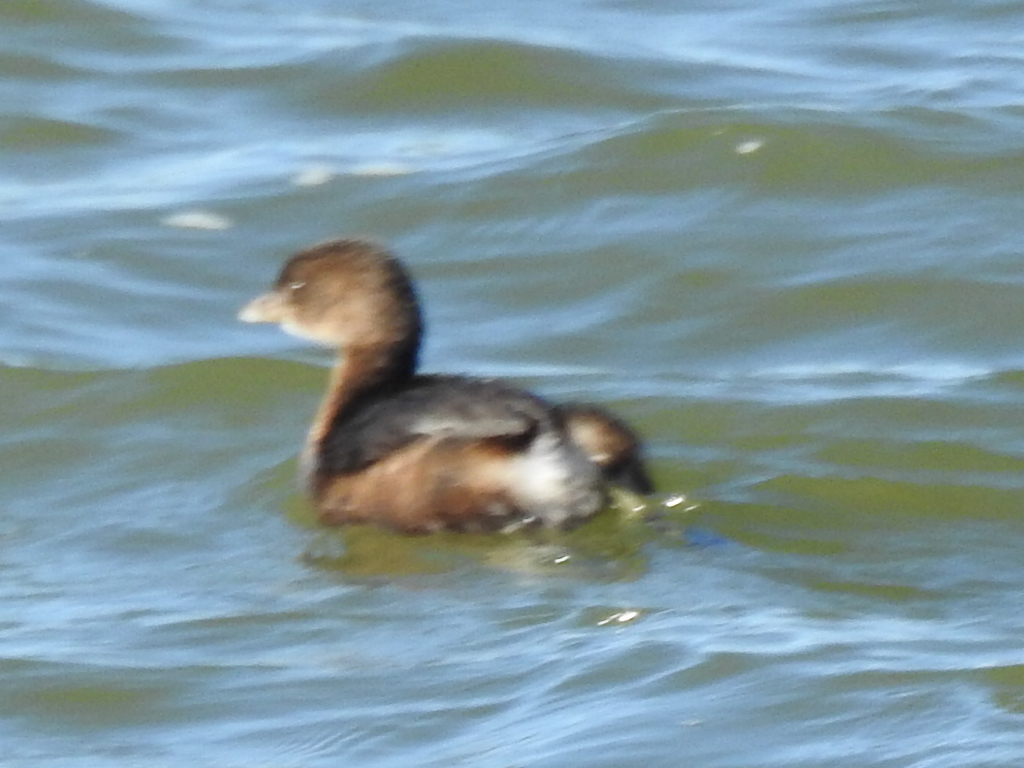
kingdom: Animalia
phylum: Chordata
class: Aves
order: Podicipediformes
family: Podicipedidae
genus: Podilymbus
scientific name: Podilymbus podiceps
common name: Pied-billed grebe
